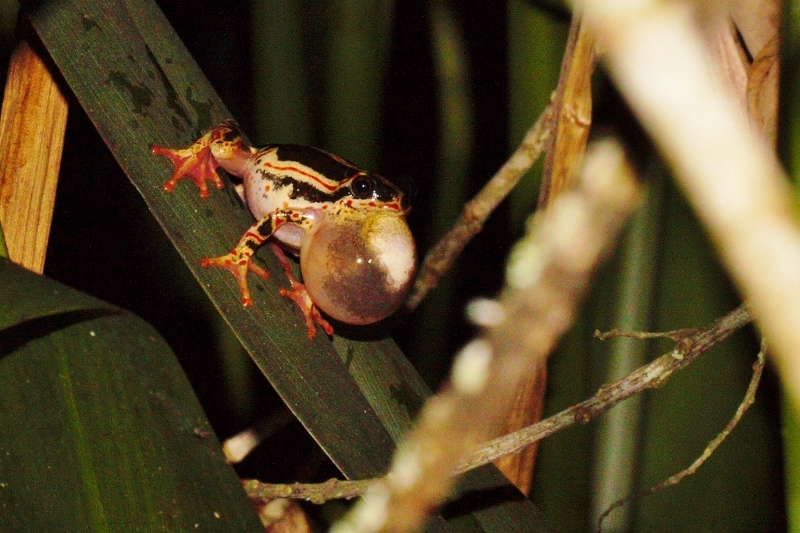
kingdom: Animalia
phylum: Chordata
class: Amphibia
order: Anura
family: Hyperoliidae
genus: Hyperolius
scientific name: Hyperolius marmoratus
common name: Painted reed frog
